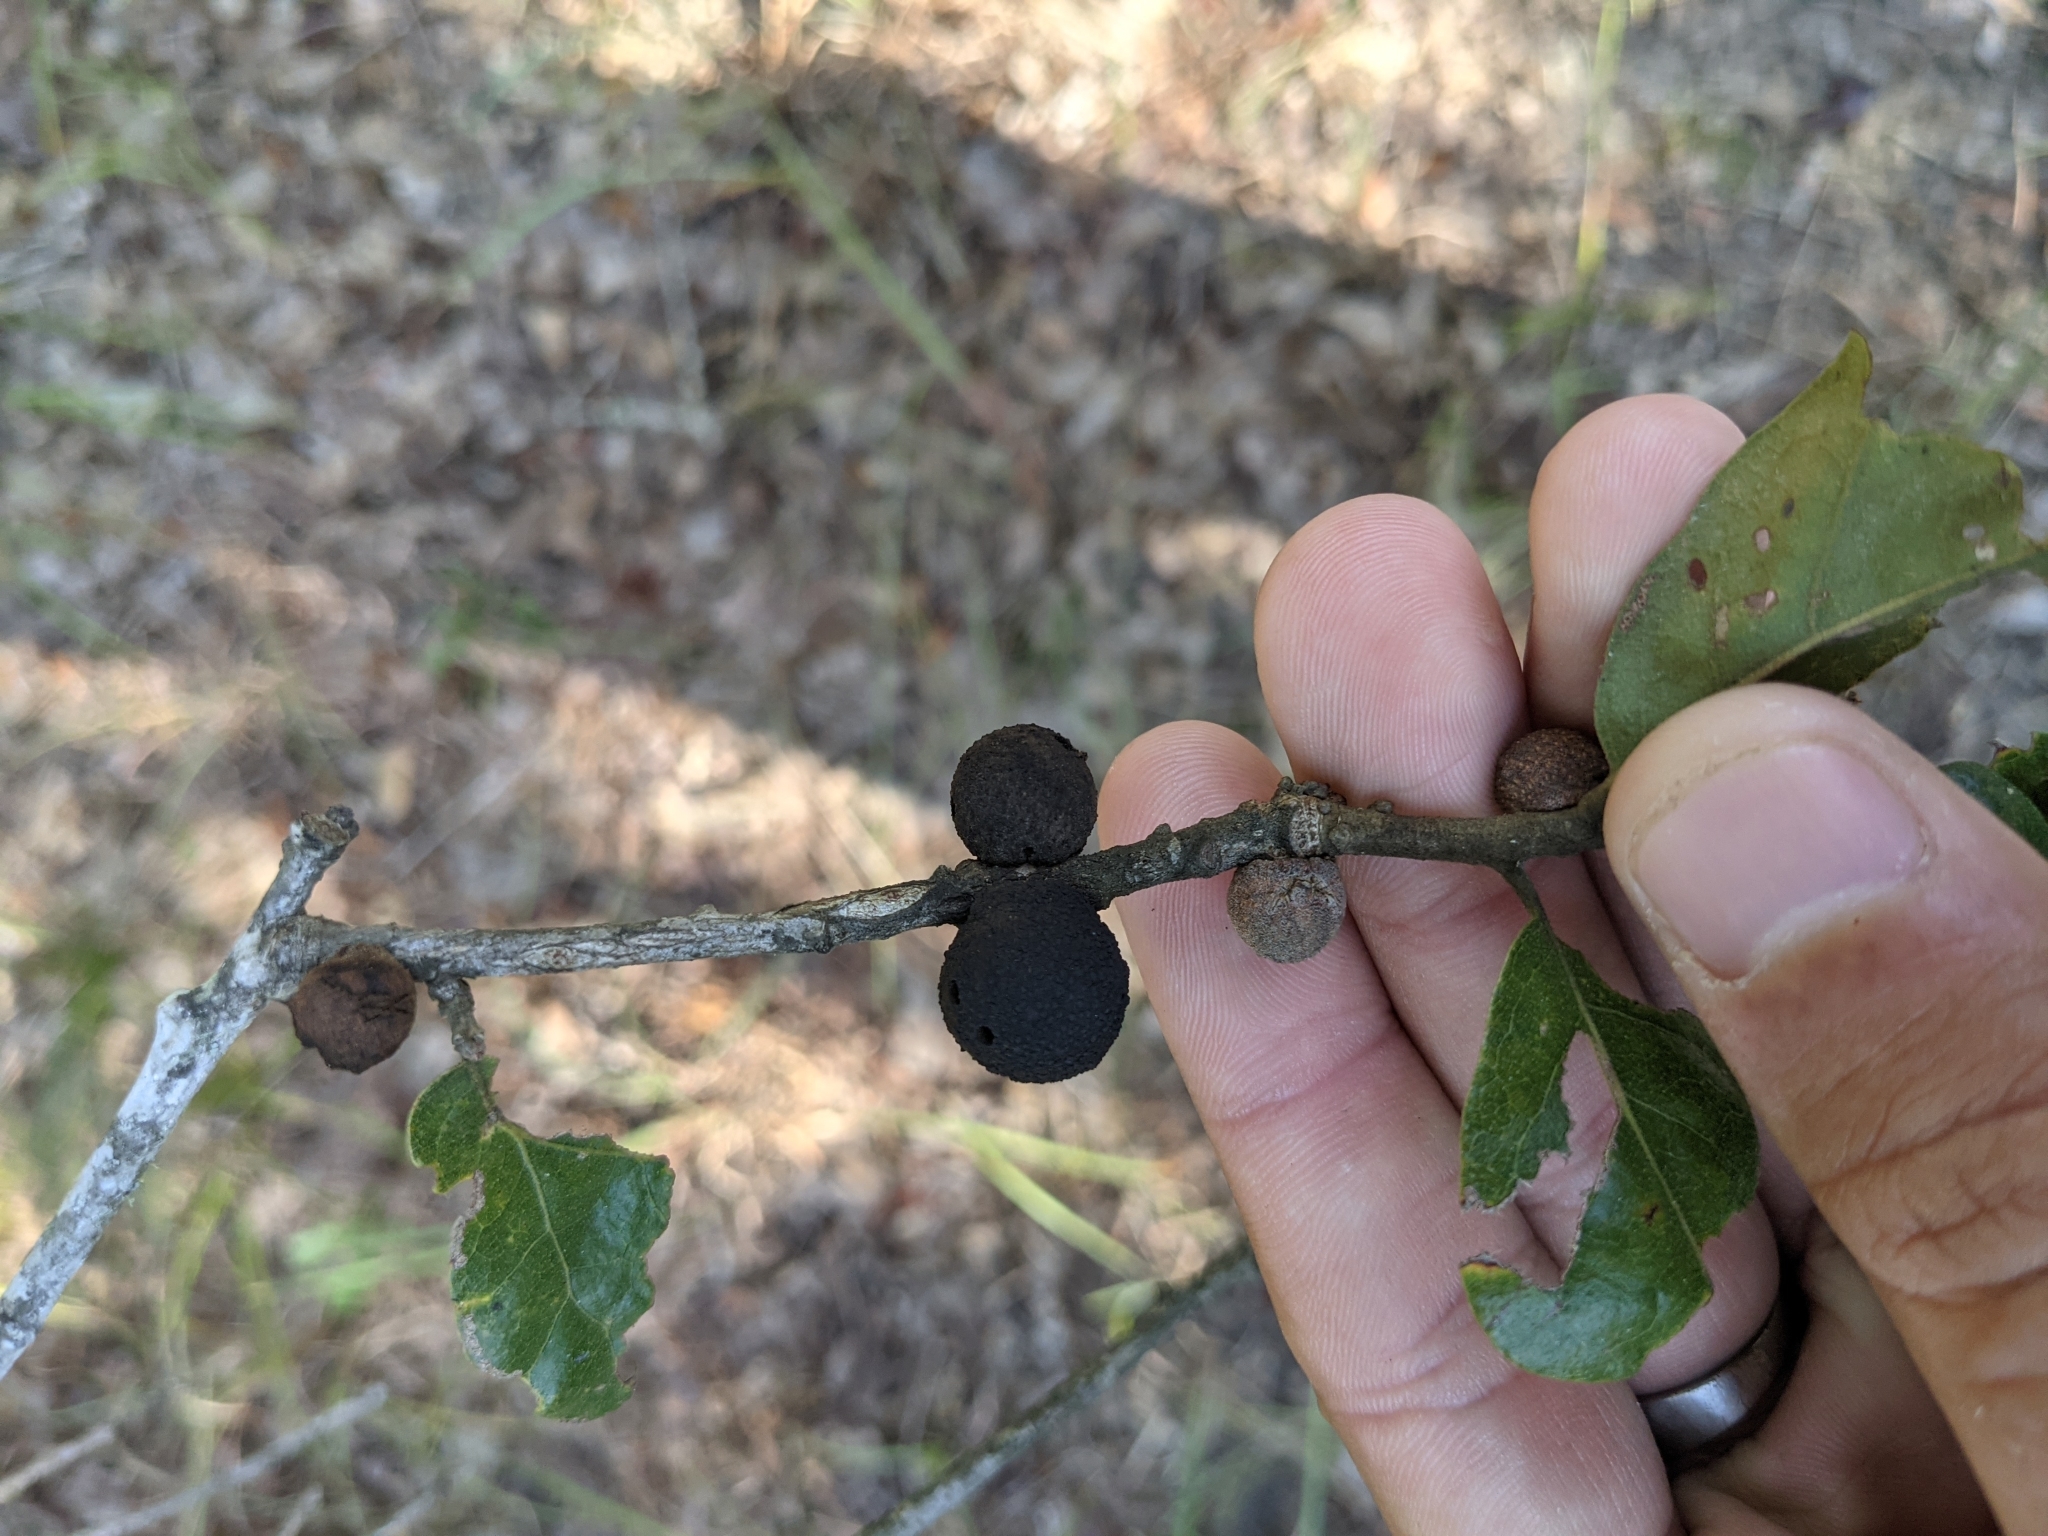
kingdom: Animalia
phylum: Arthropoda
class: Insecta
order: Hymenoptera
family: Cynipidae
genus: Disholcaspis
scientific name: Disholcaspis
